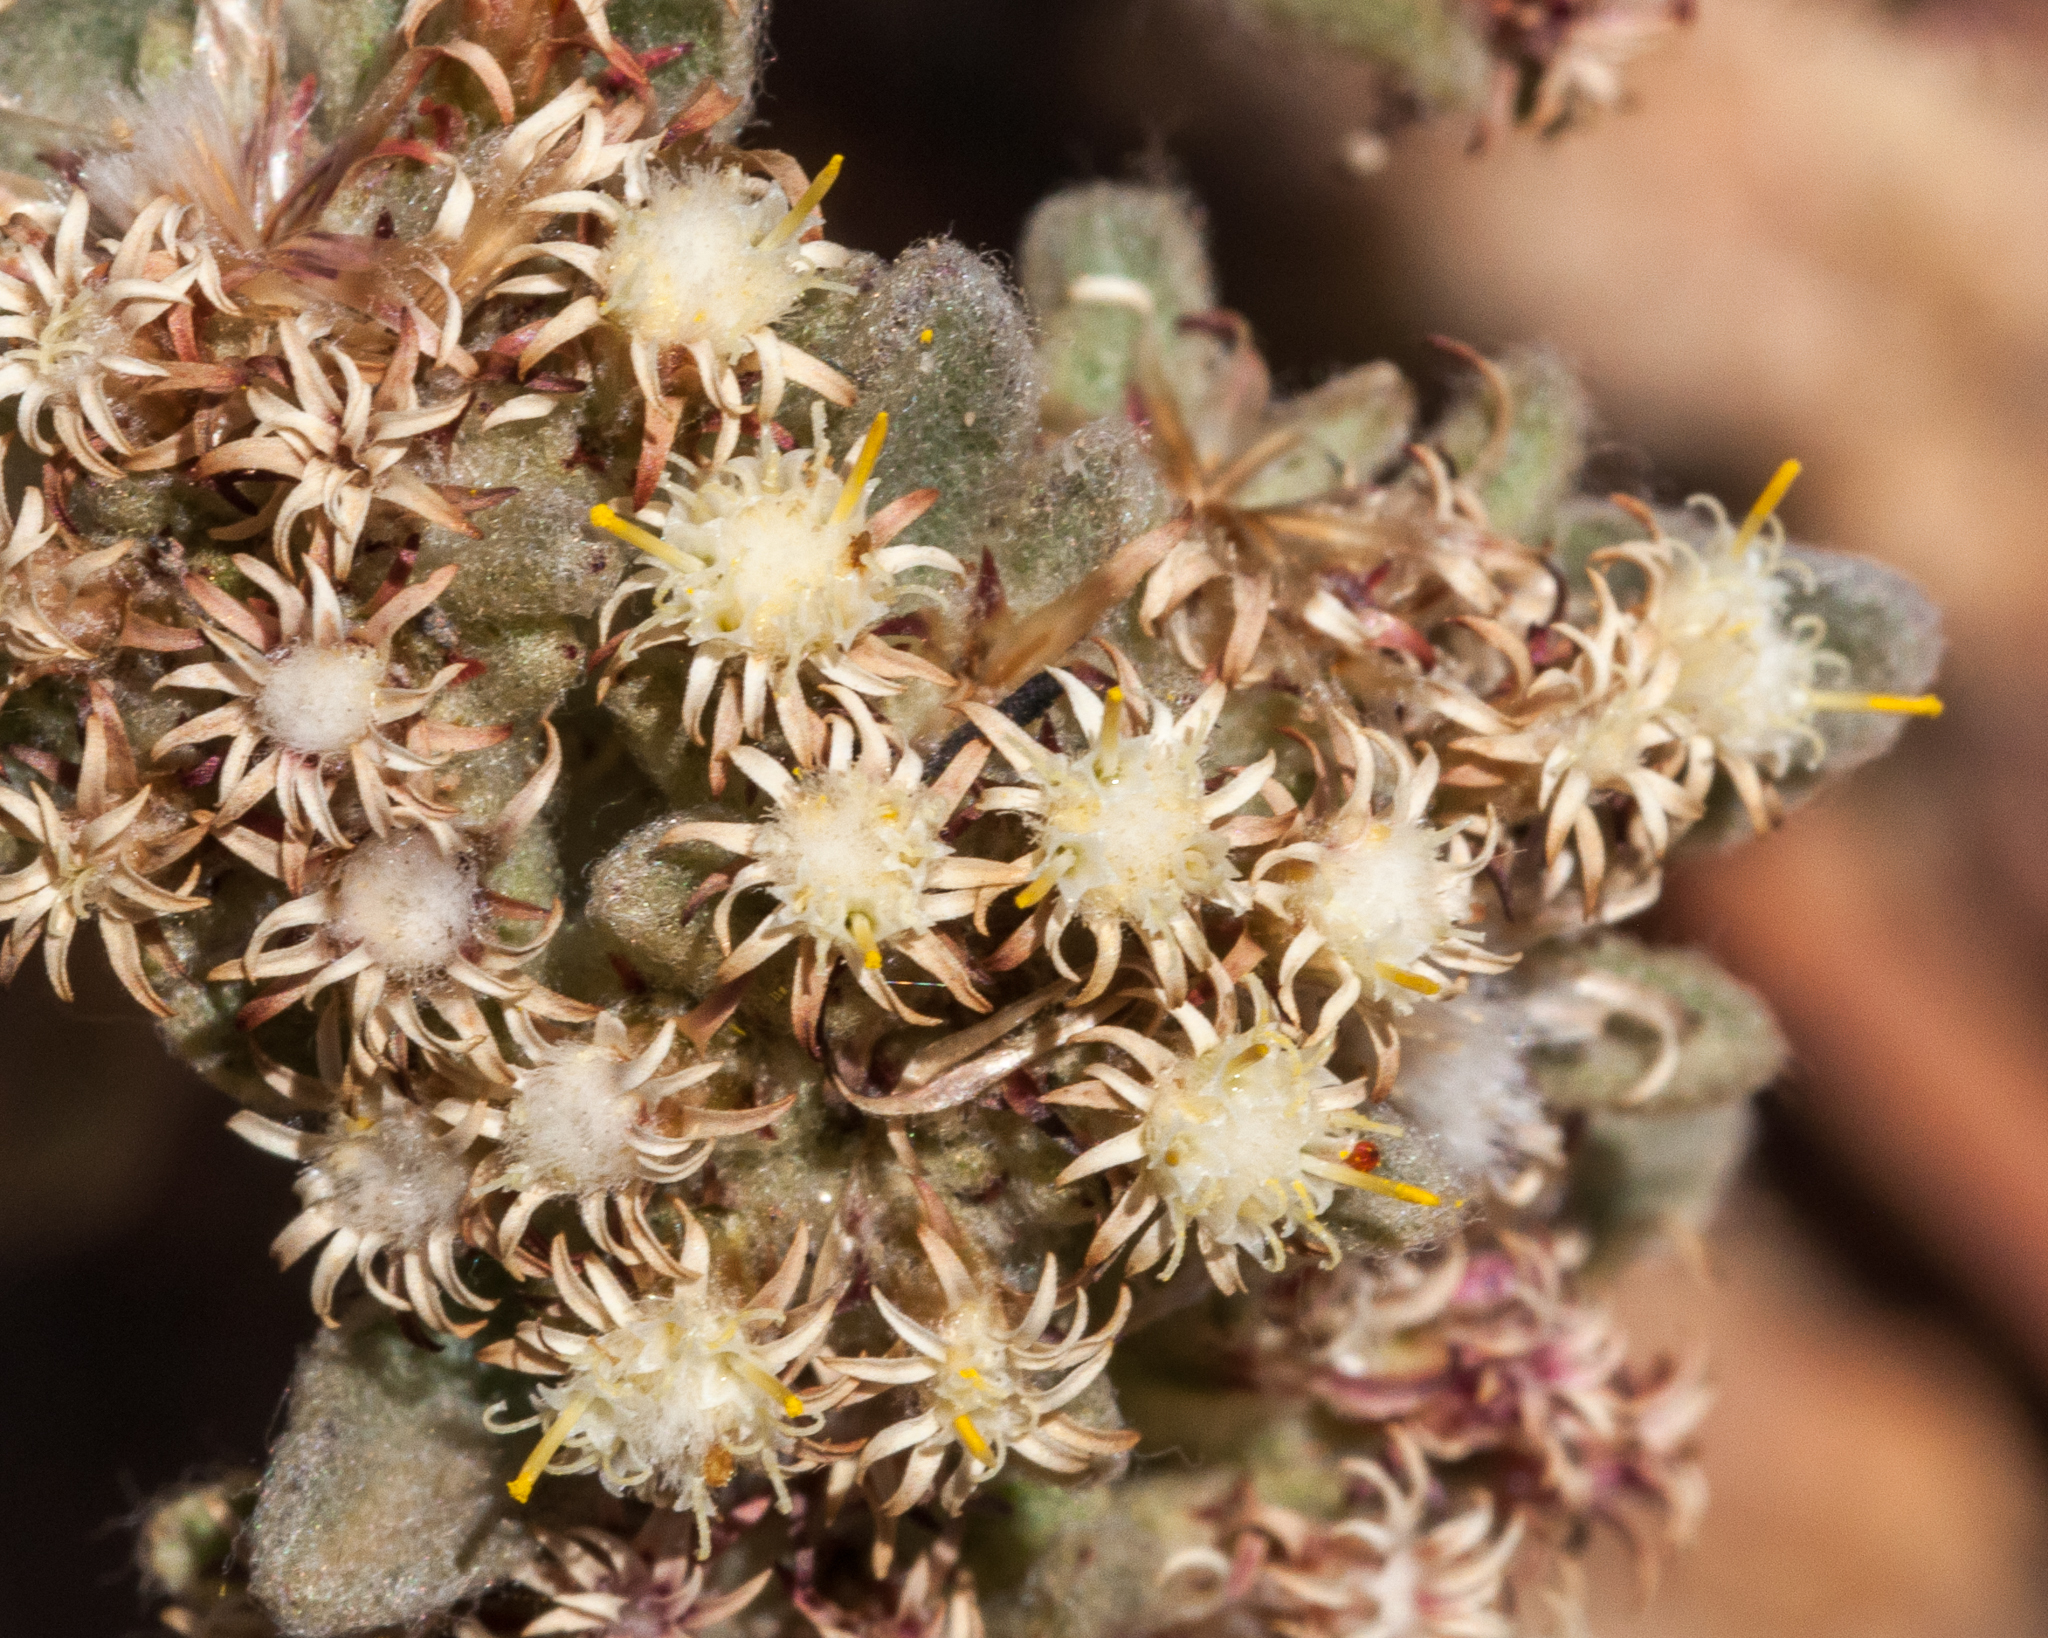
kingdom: Plantae
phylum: Tracheophyta
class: Magnoliopsida
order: Asterales
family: Asteraceae
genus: Helichrysum
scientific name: Helichrysum spiralepis
